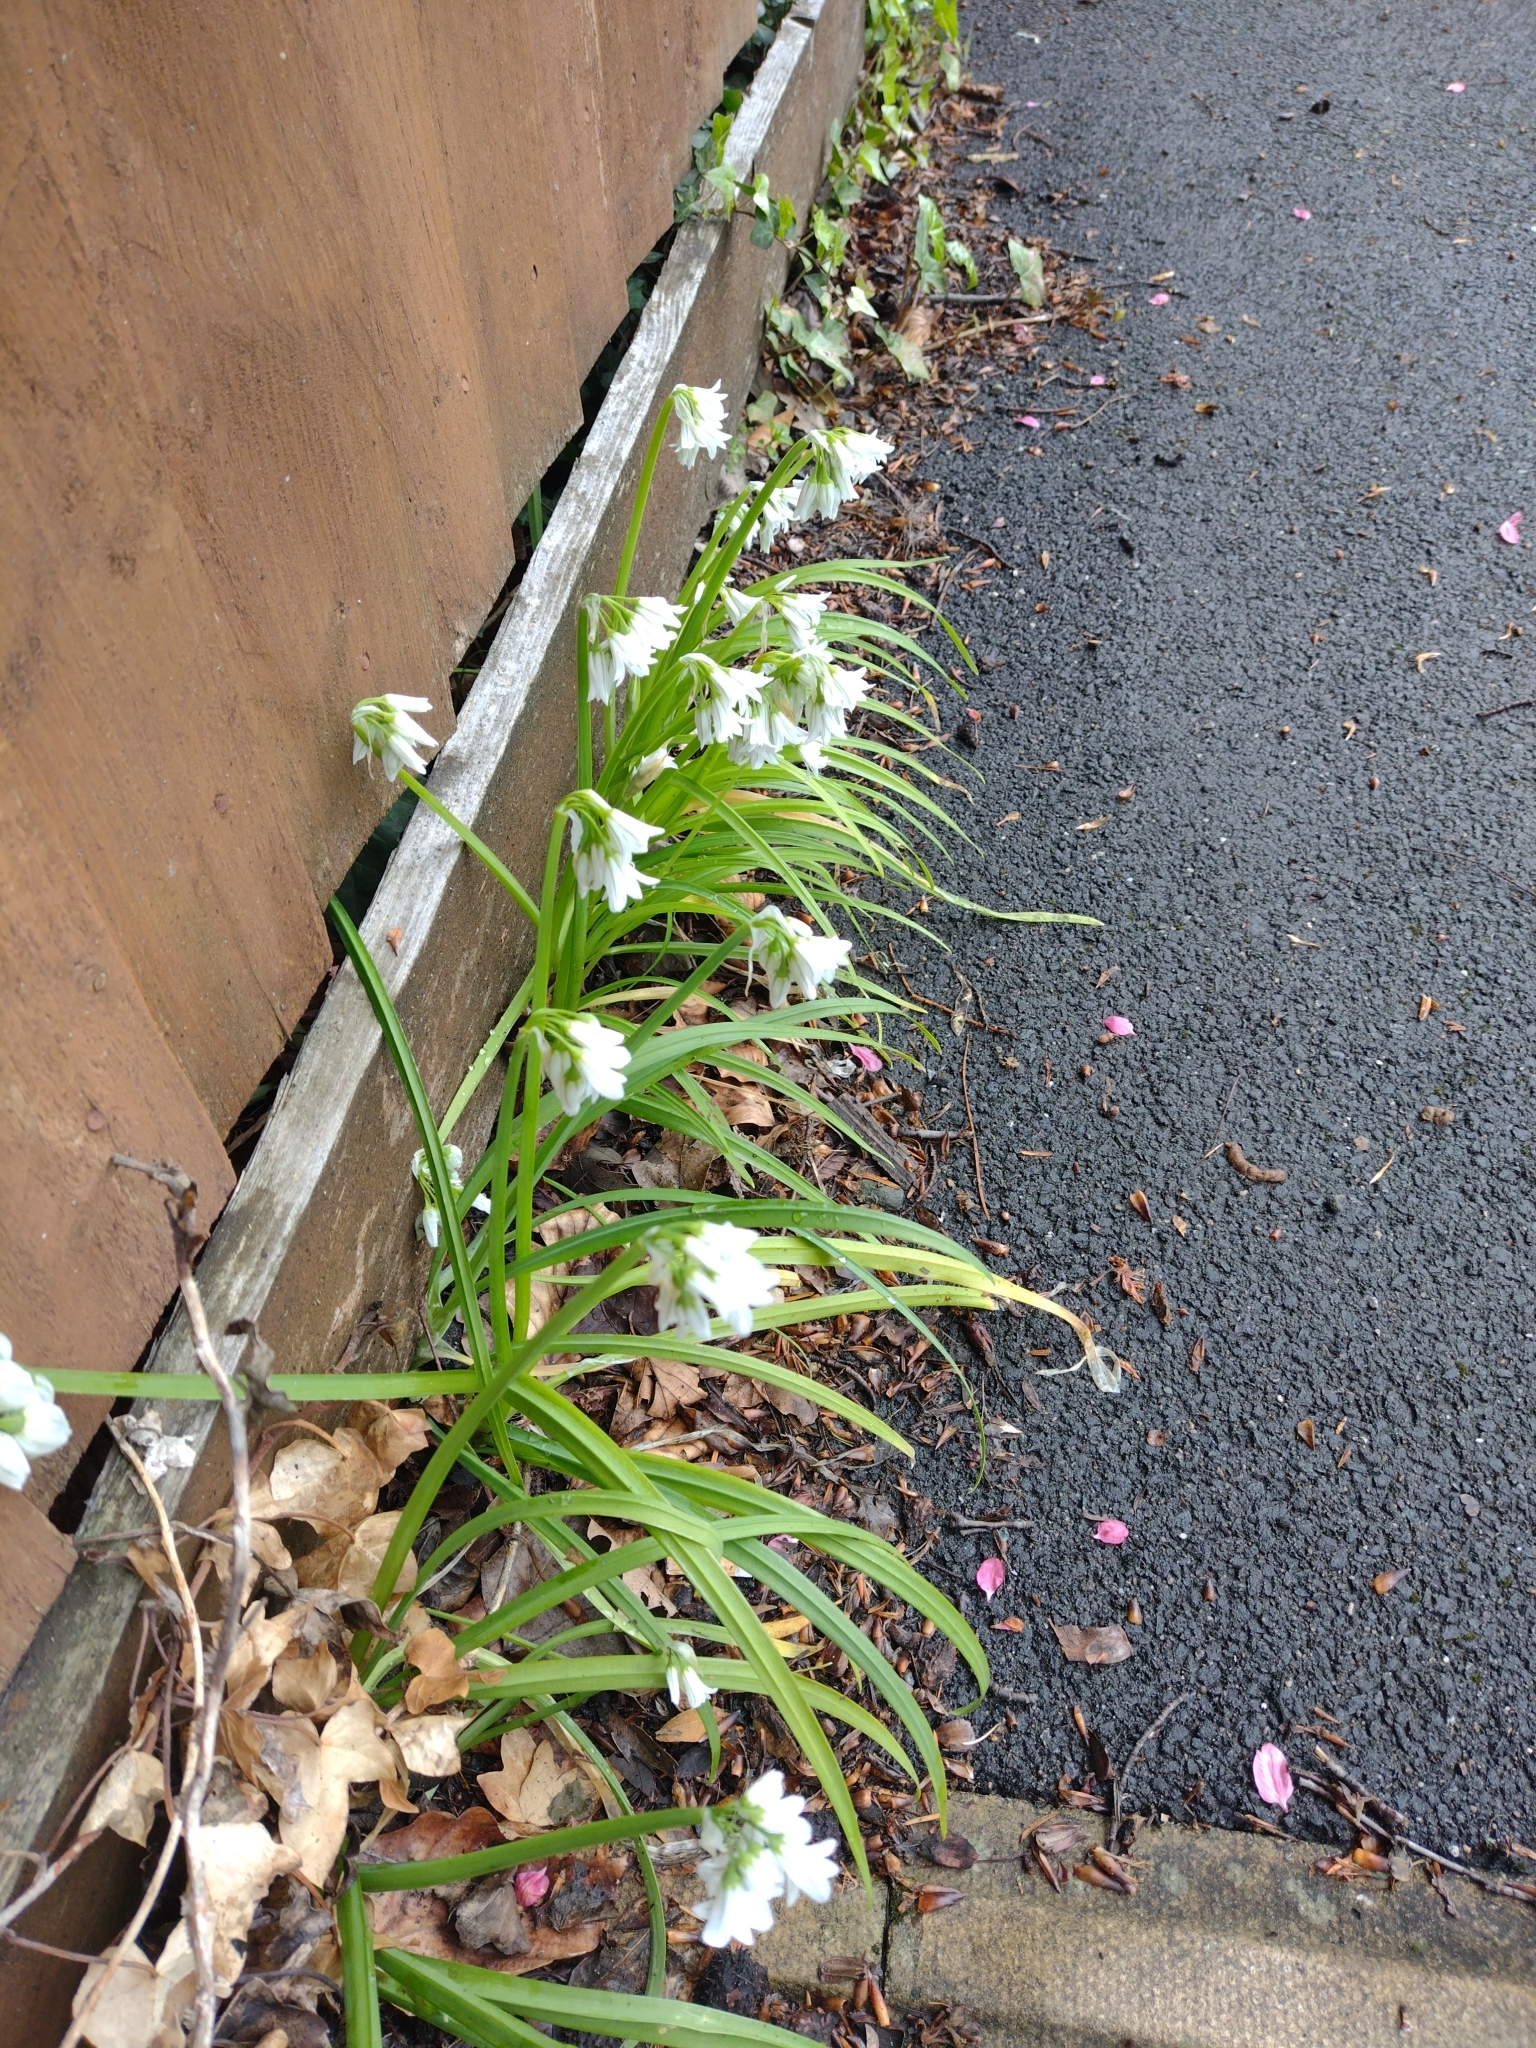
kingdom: Plantae
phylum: Tracheophyta
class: Liliopsida
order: Asparagales
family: Amaryllidaceae
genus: Allium
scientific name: Allium triquetrum
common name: Three-cornered garlic
